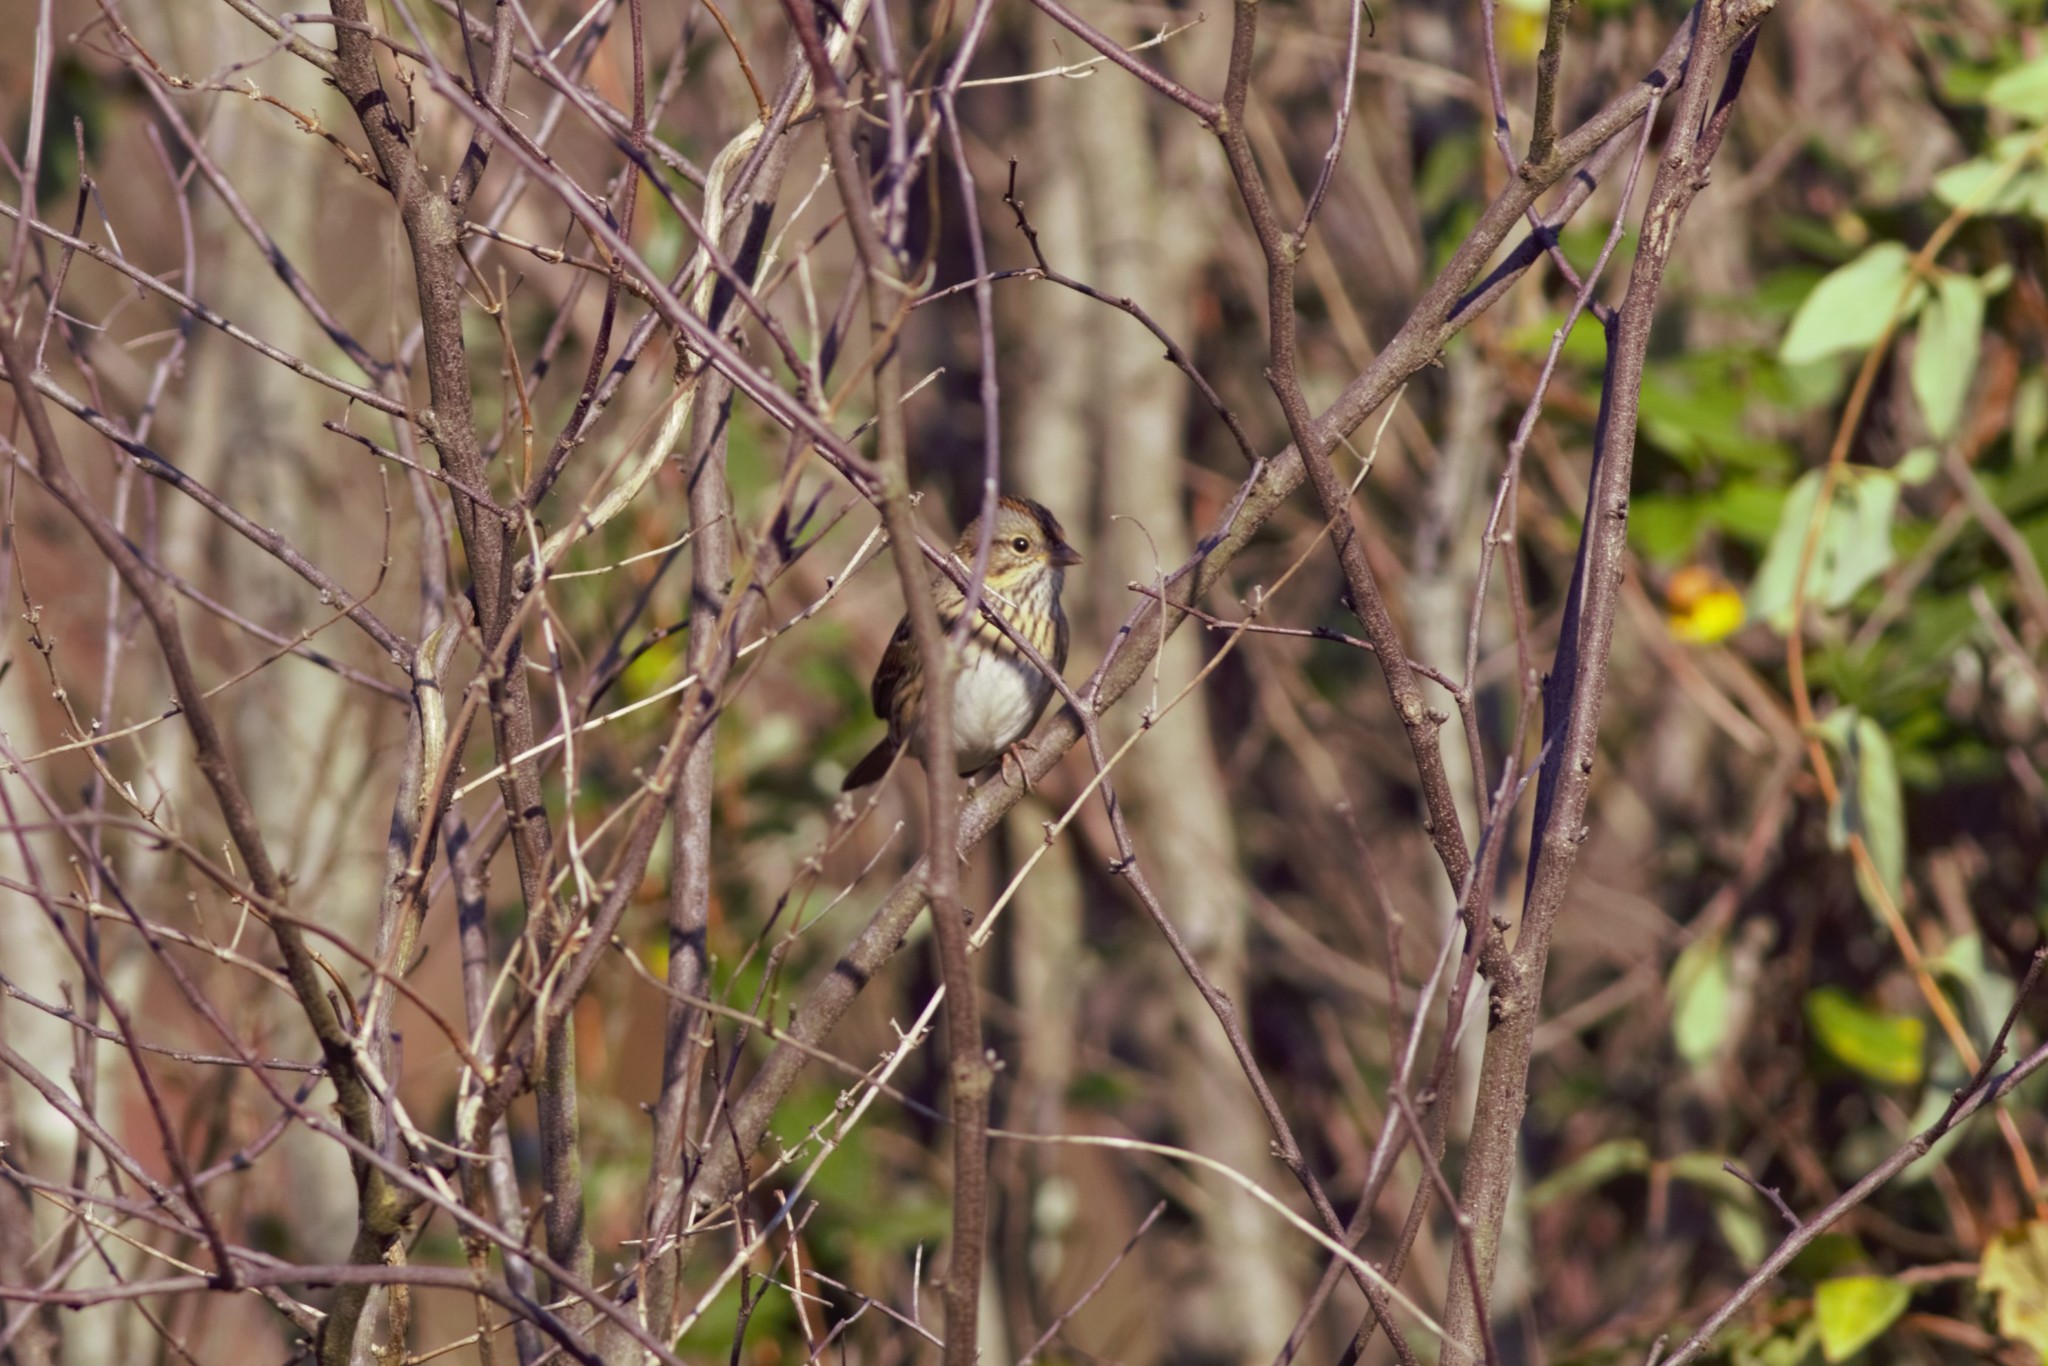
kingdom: Animalia
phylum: Chordata
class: Aves
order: Passeriformes
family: Passerellidae
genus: Melospiza
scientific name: Melospiza lincolnii
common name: Lincoln's sparrow
